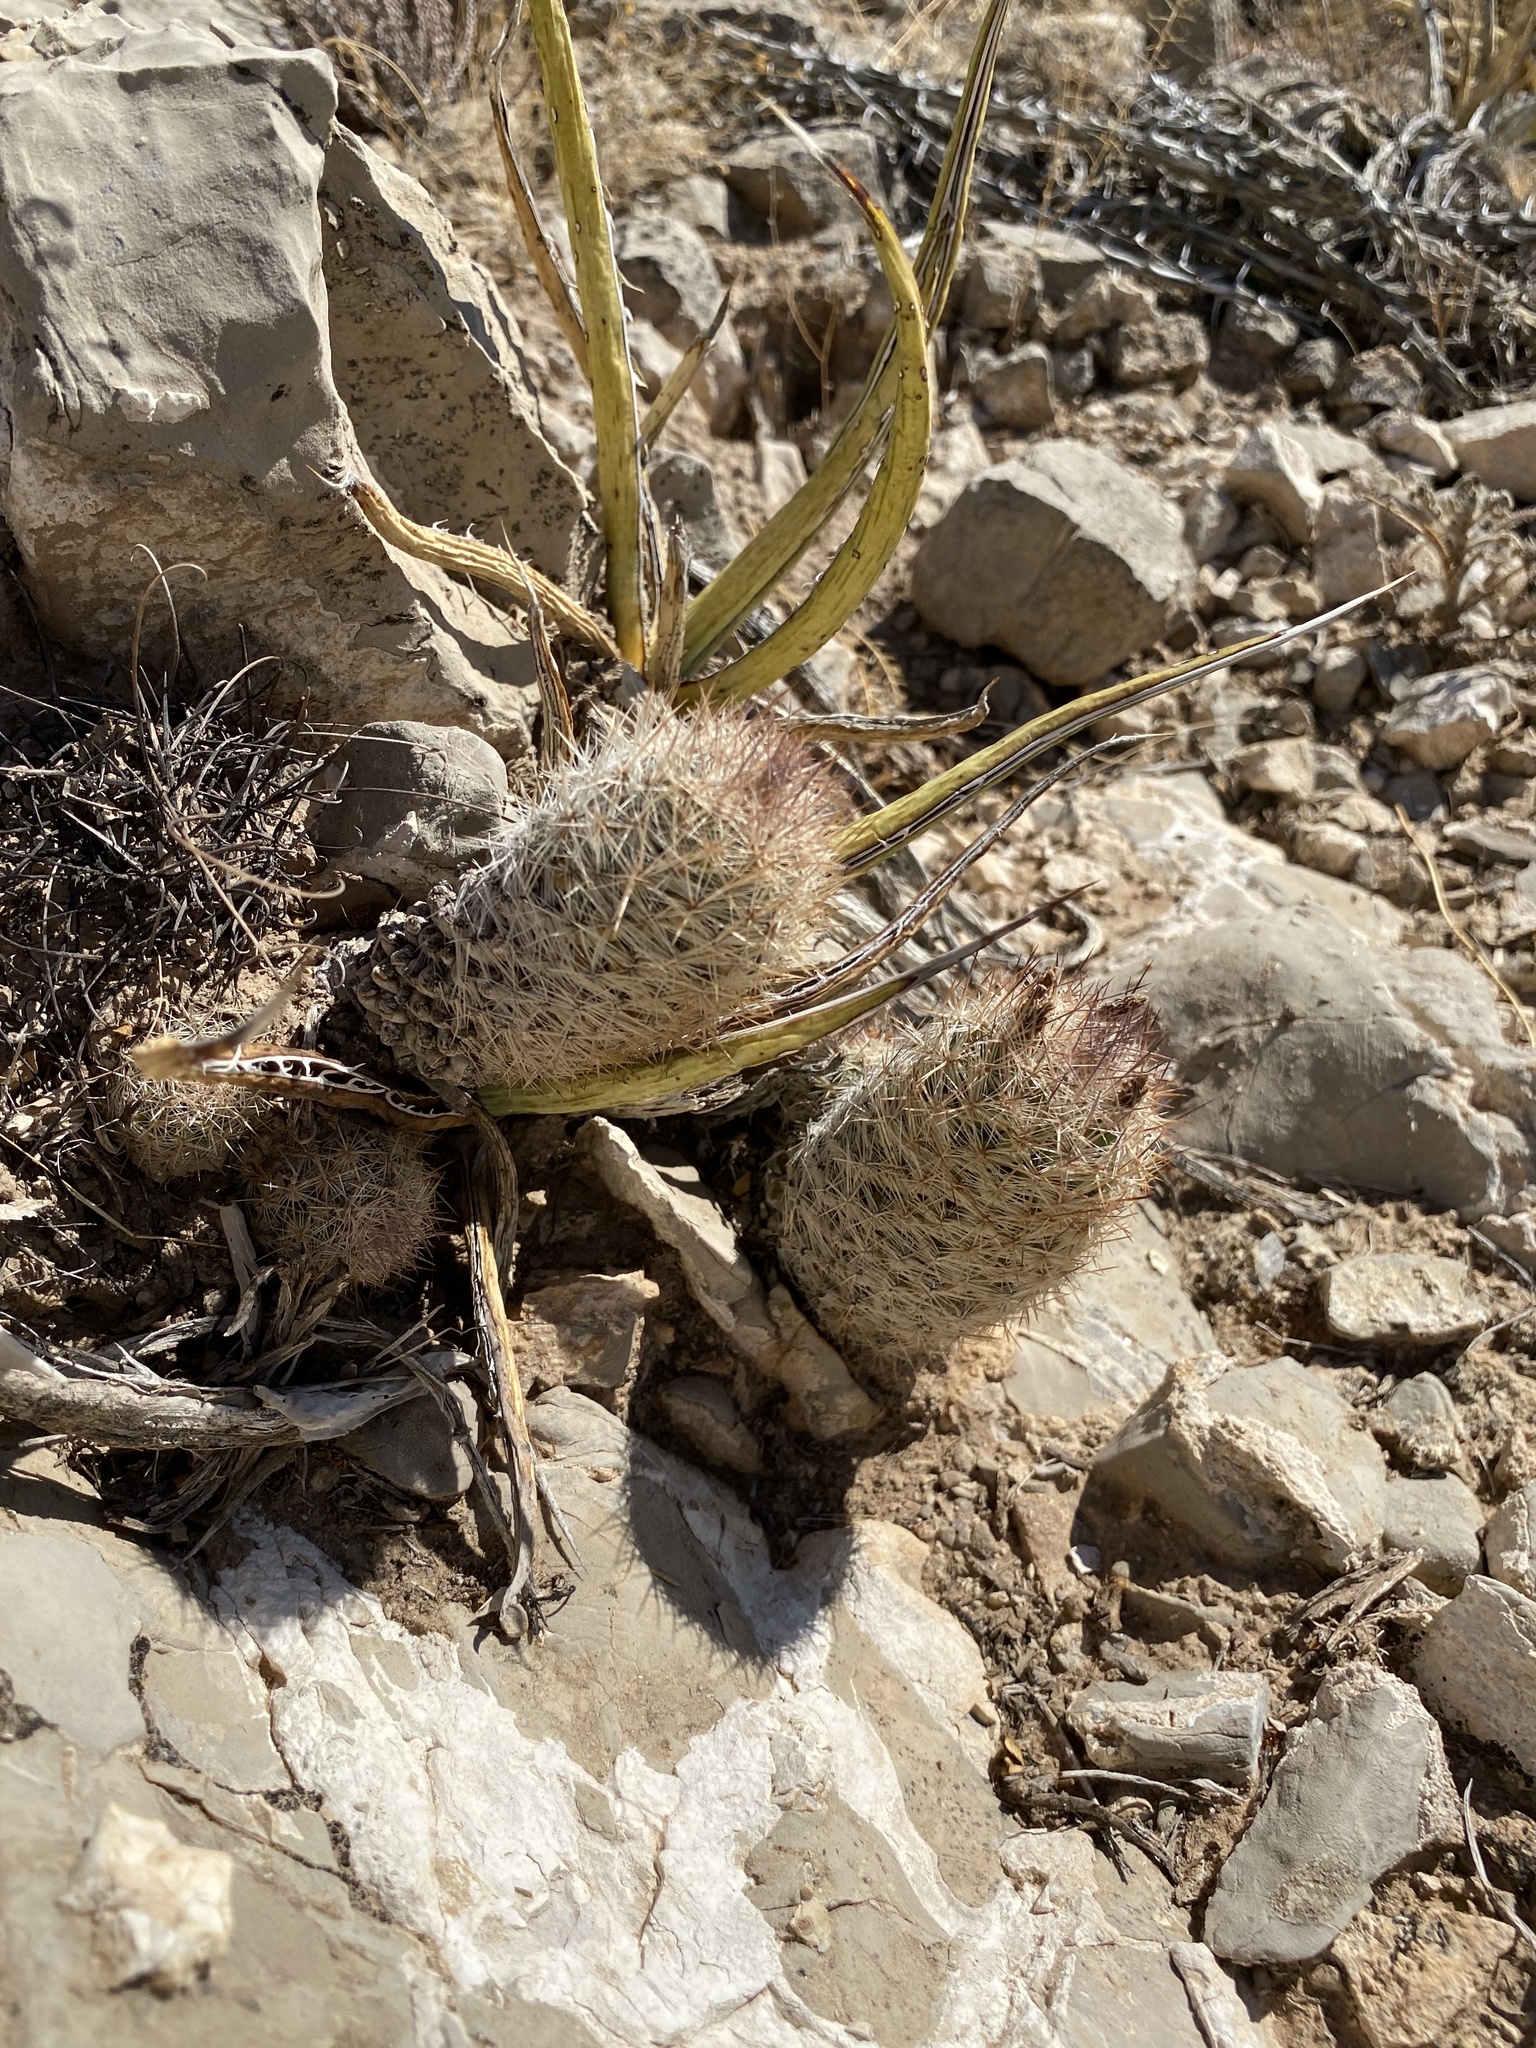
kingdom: Plantae
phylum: Tracheophyta
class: Magnoliopsida
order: Caryophyllales
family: Cactaceae
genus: Pelecyphora
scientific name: Pelecyphora tuberculosa
